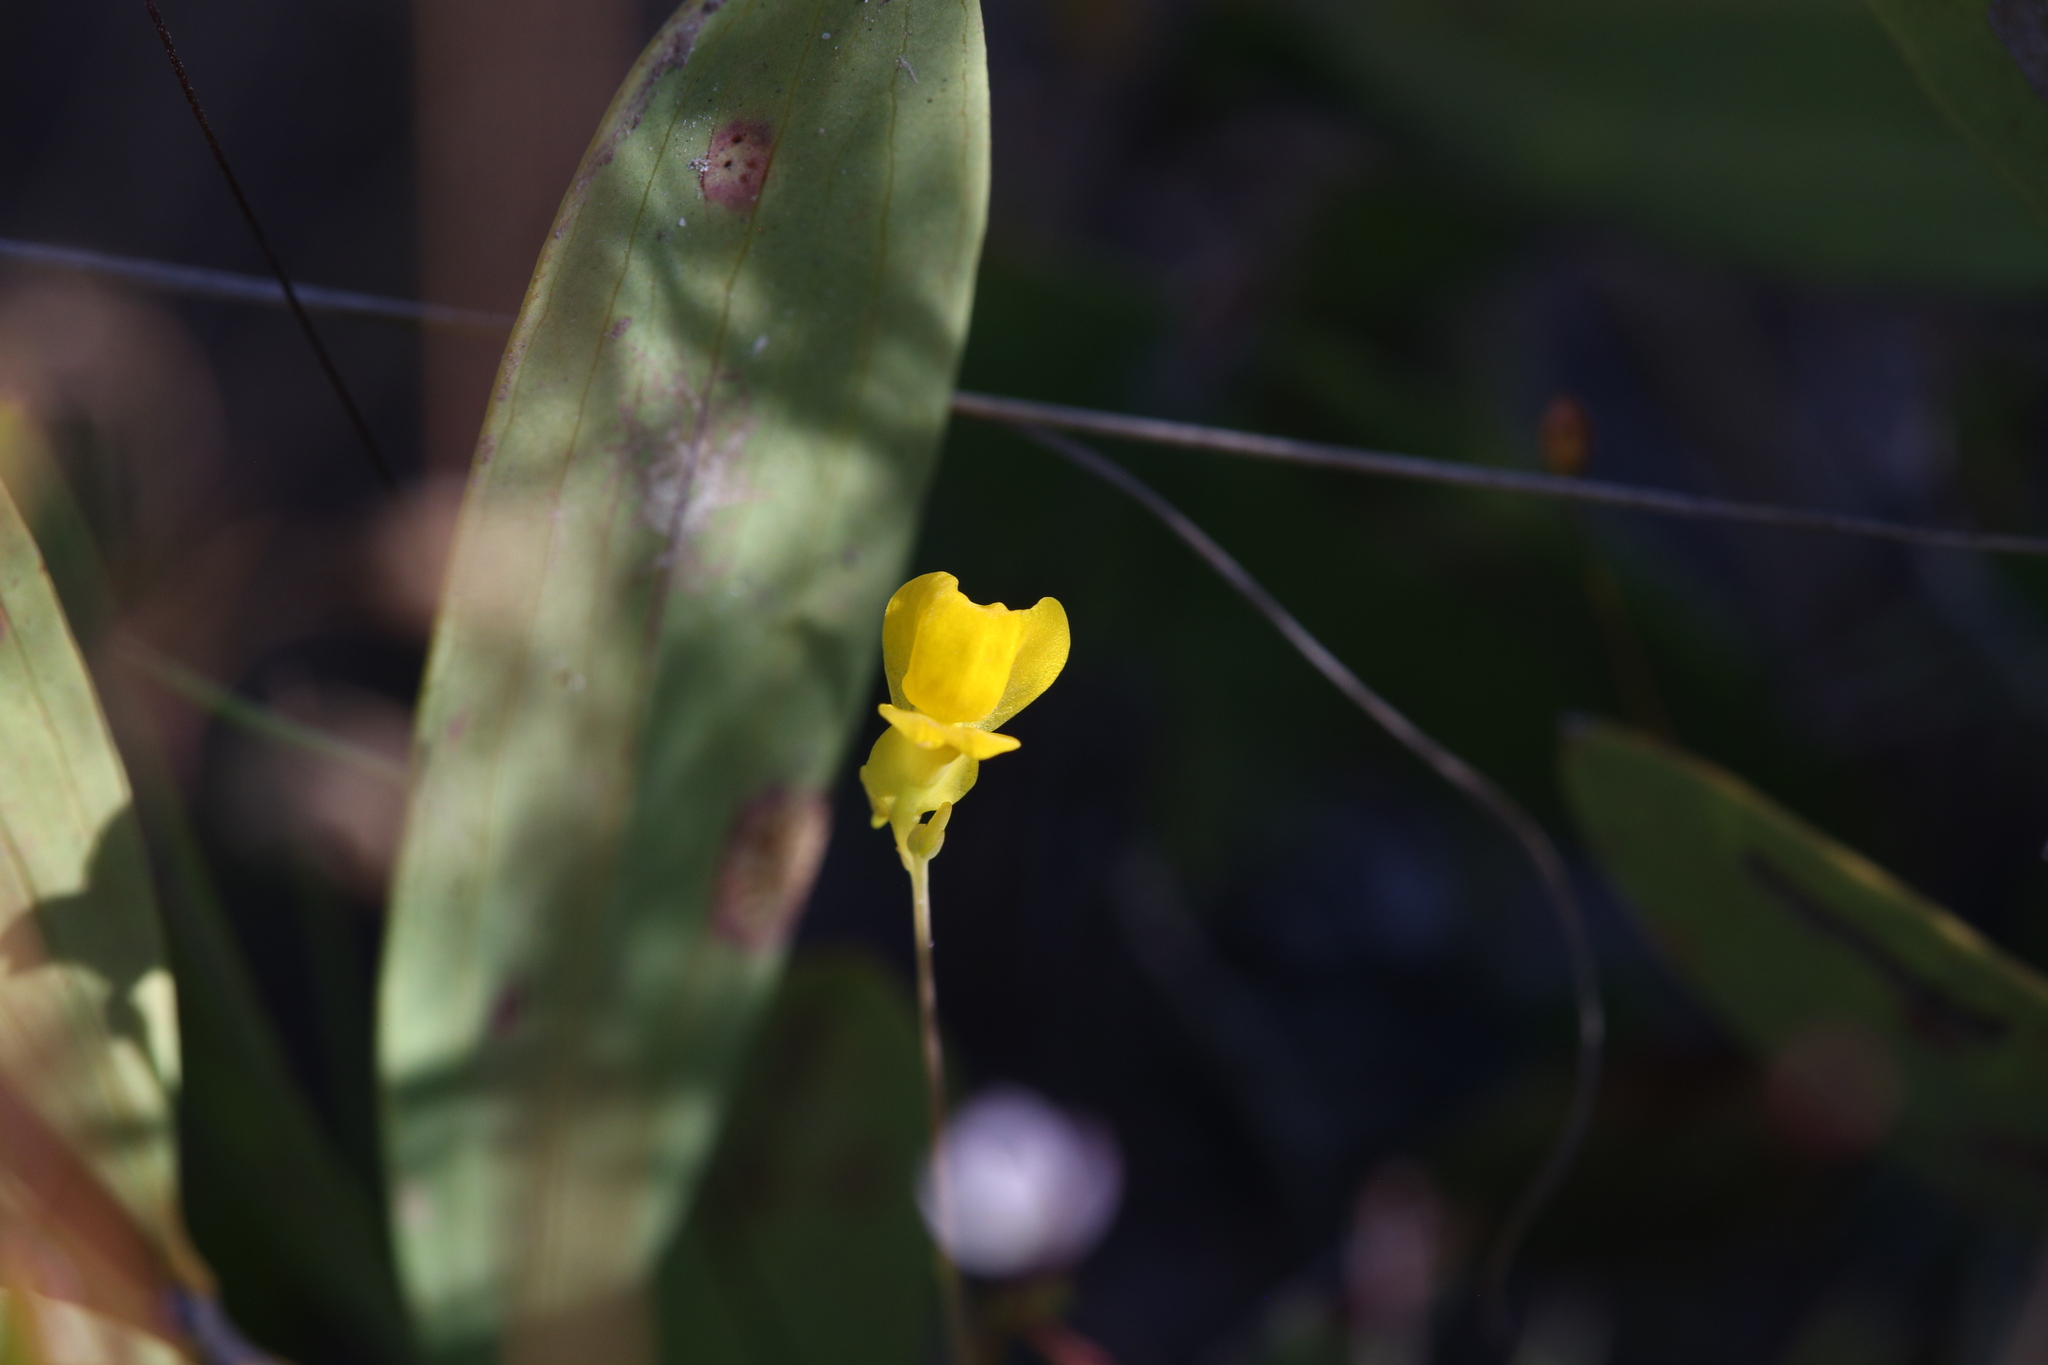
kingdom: Plantae
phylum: Tracheophyta
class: Magnoliopsida
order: Lamiales
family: Lentibulariaceae
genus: Utricularia
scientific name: Utricularia odorata
